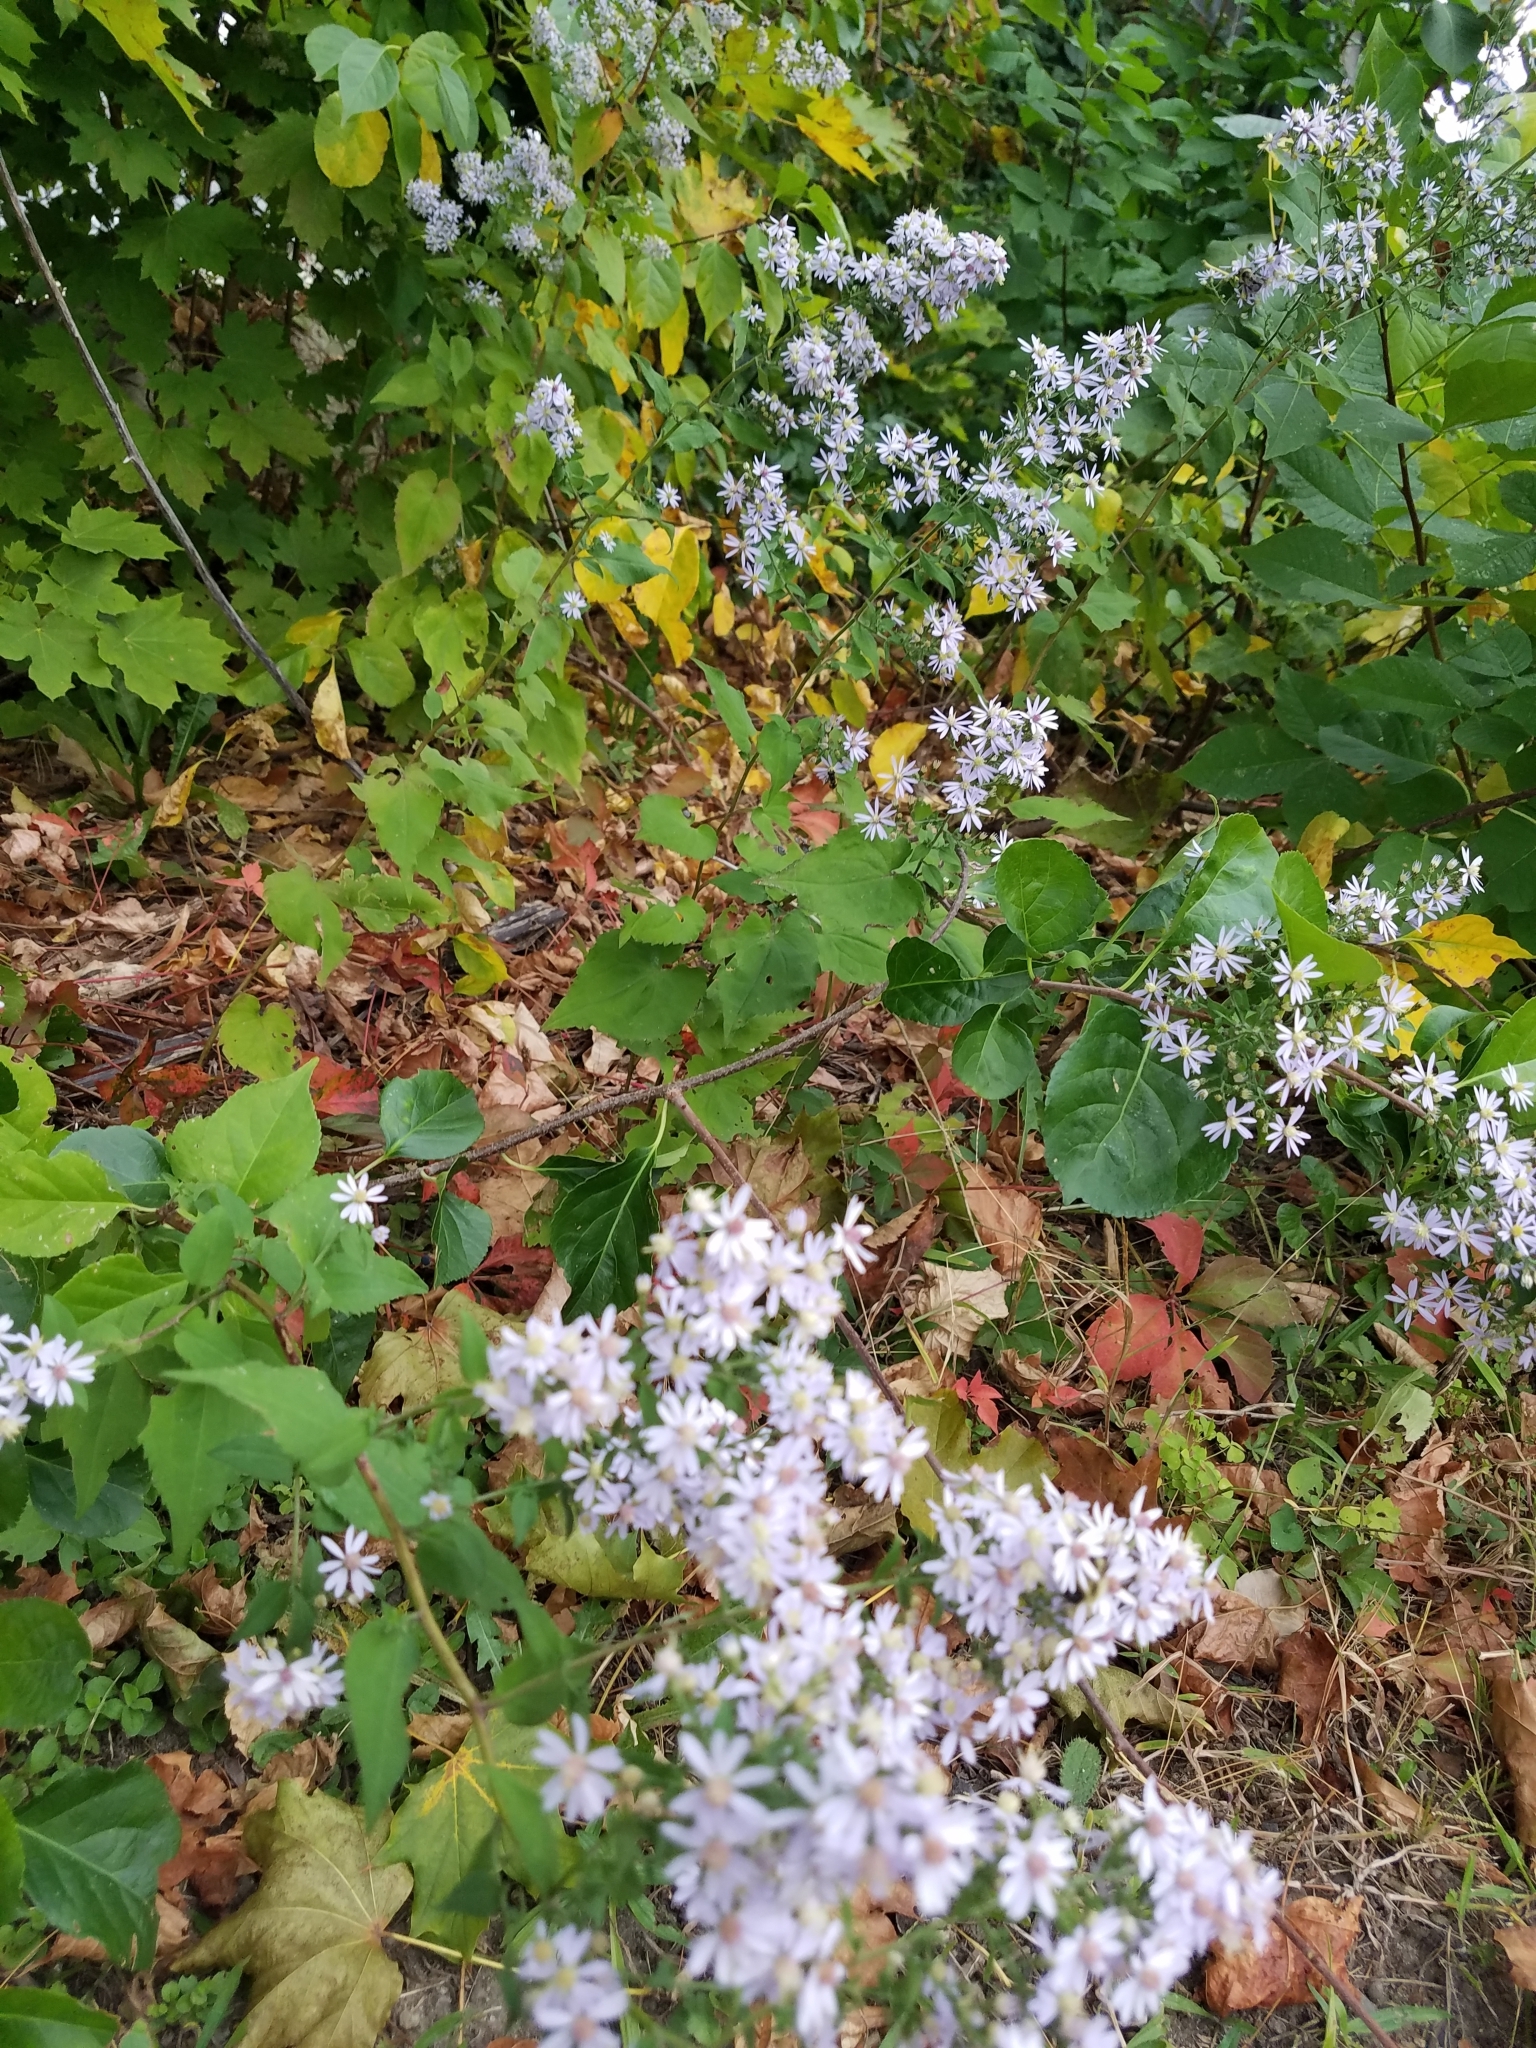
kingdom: Plantae
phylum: Tracheophyta
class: Magnoliopsida
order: Asterales
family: Asteraceae
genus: Symphyotrichum
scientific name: Symphyotrichum cordifolium
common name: Beeweed
